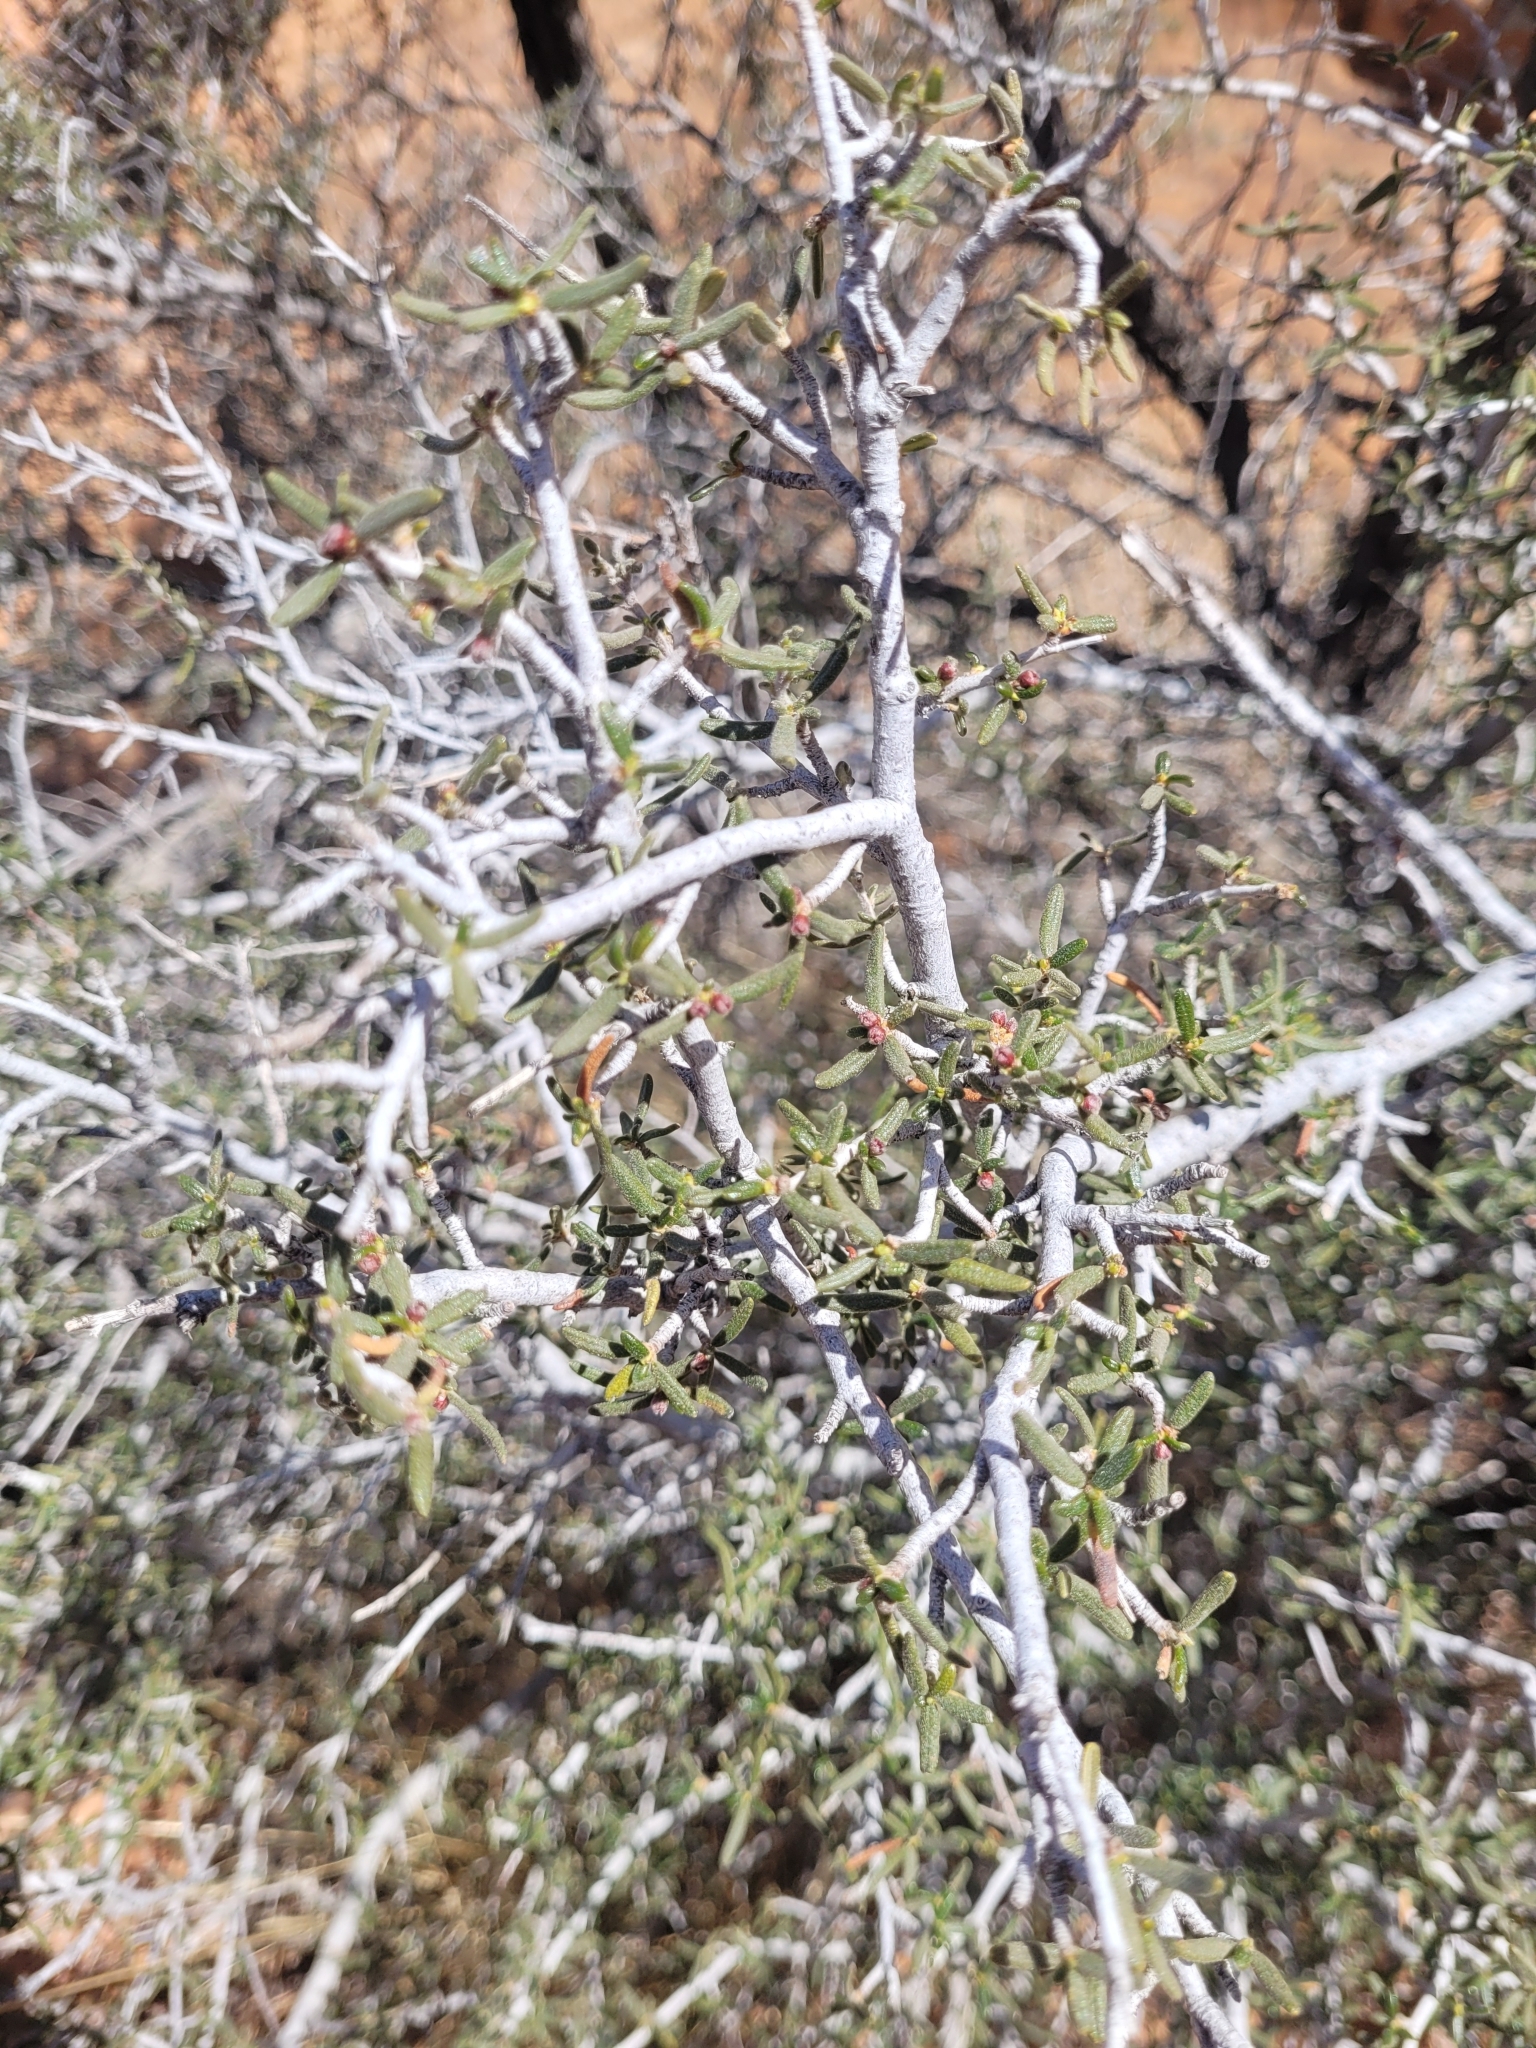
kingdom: Plantae
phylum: Tracheophyta
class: Magnoliopsida
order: Rosales
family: Rosaceae
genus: Cercocarpus
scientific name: Cercocarpus intricatus
